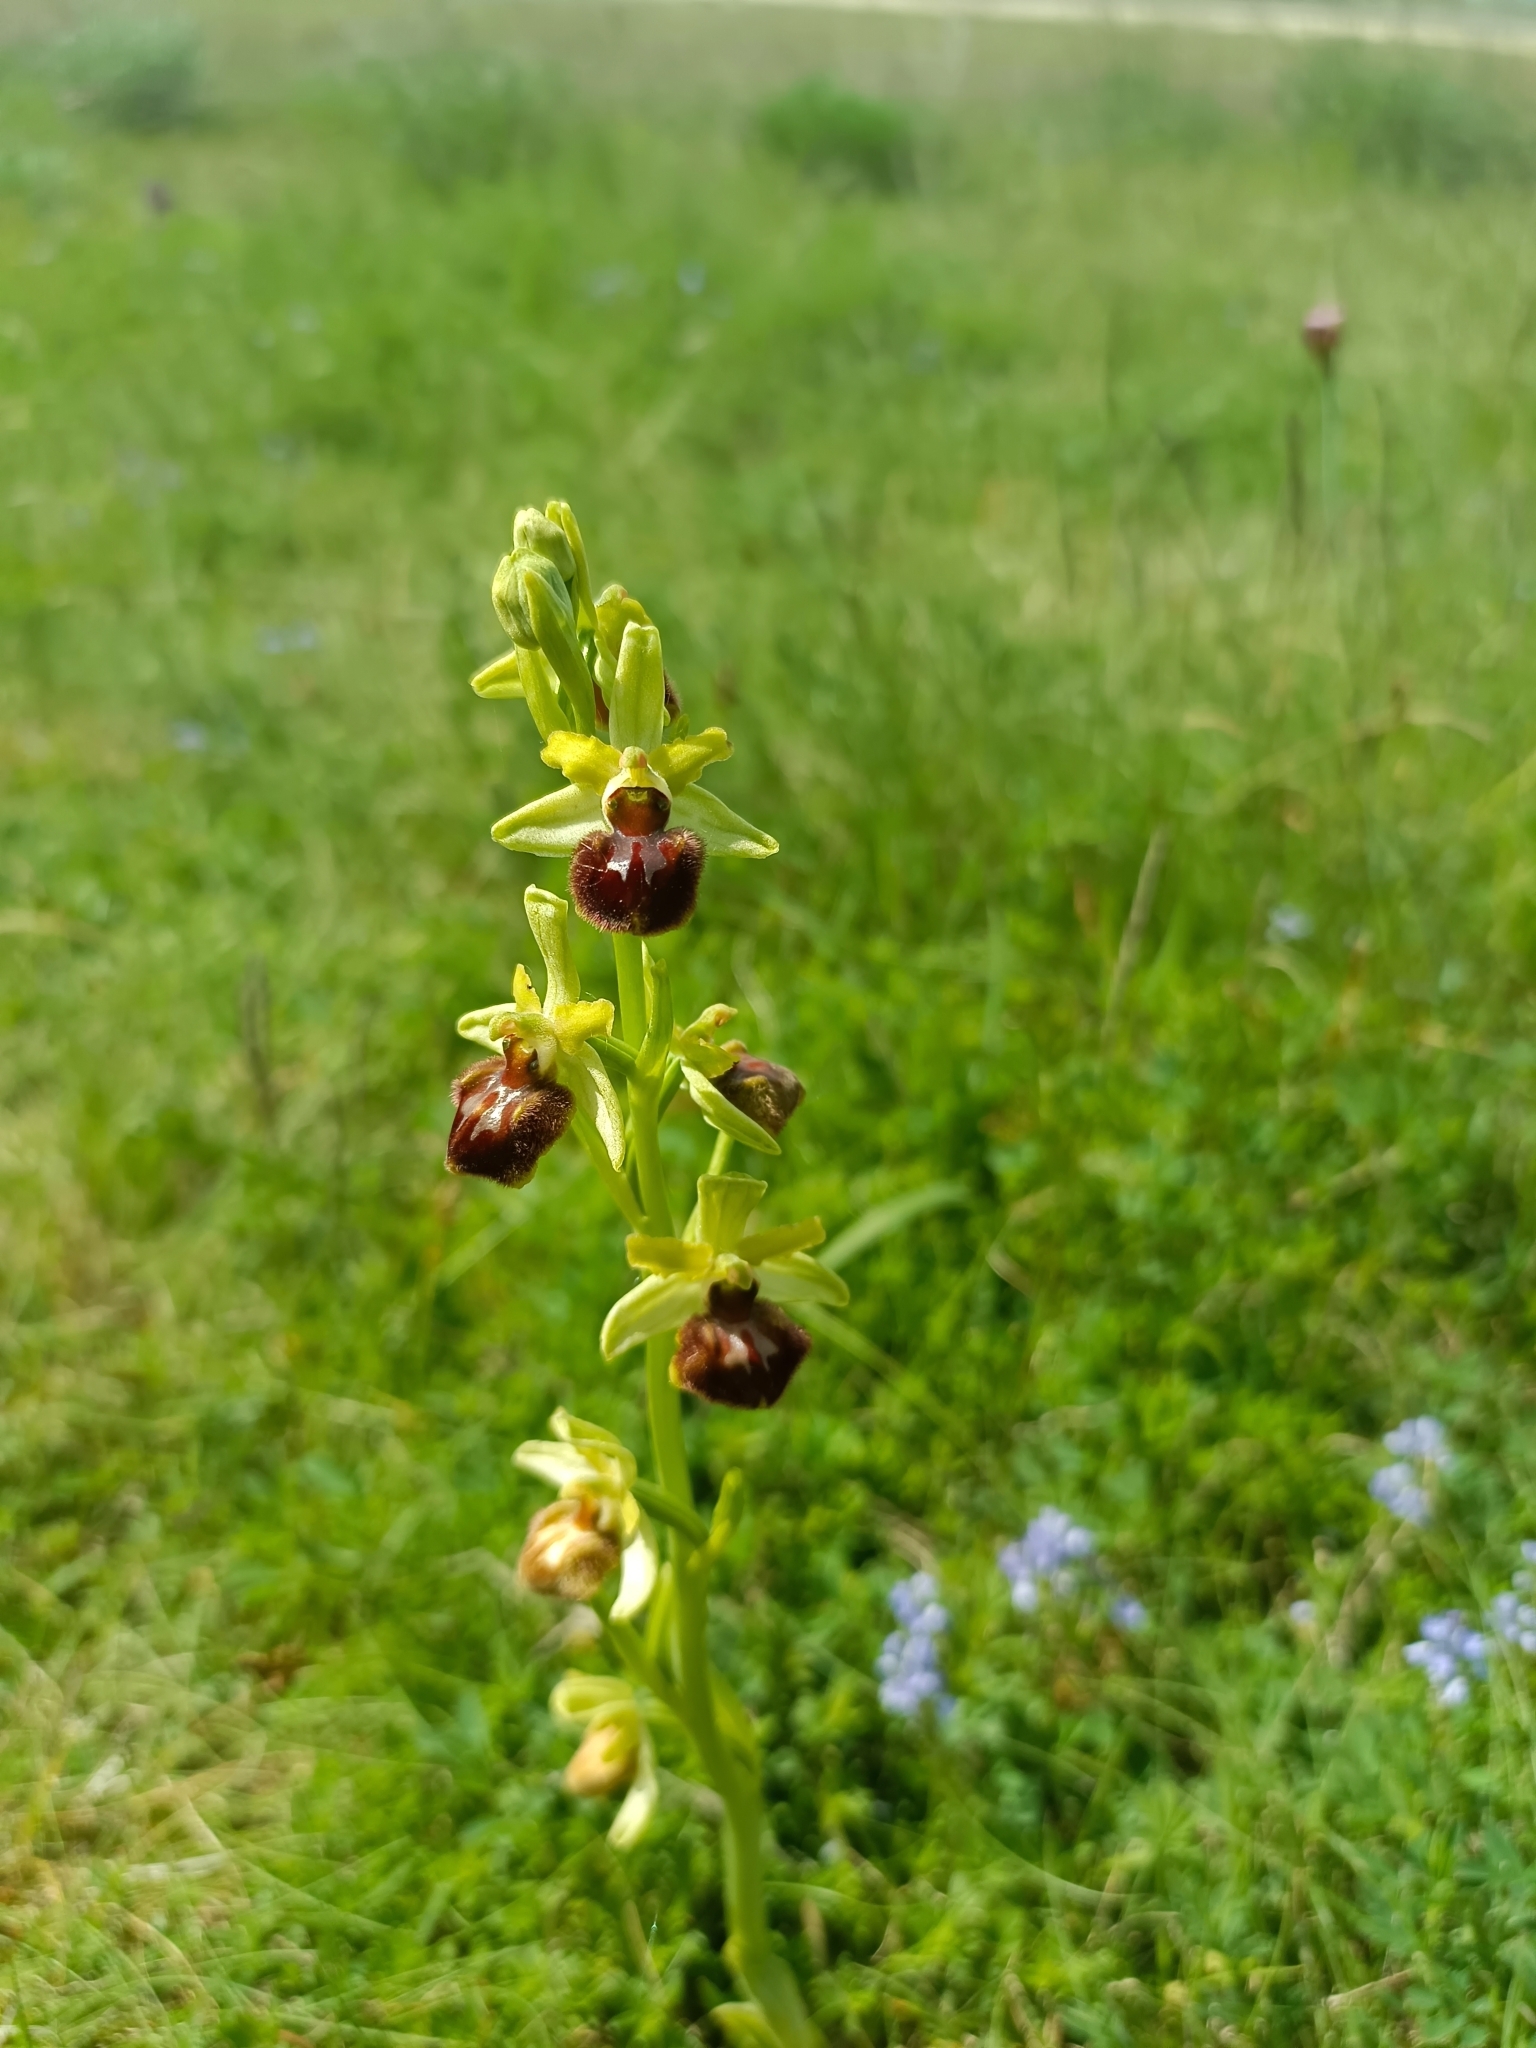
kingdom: Plantae
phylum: Tracheophyta
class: Liliopsida
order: Asparagales
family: Orchidaceae
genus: Ophrys
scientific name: Ophrys sphegodes
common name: Early spider-orchid
